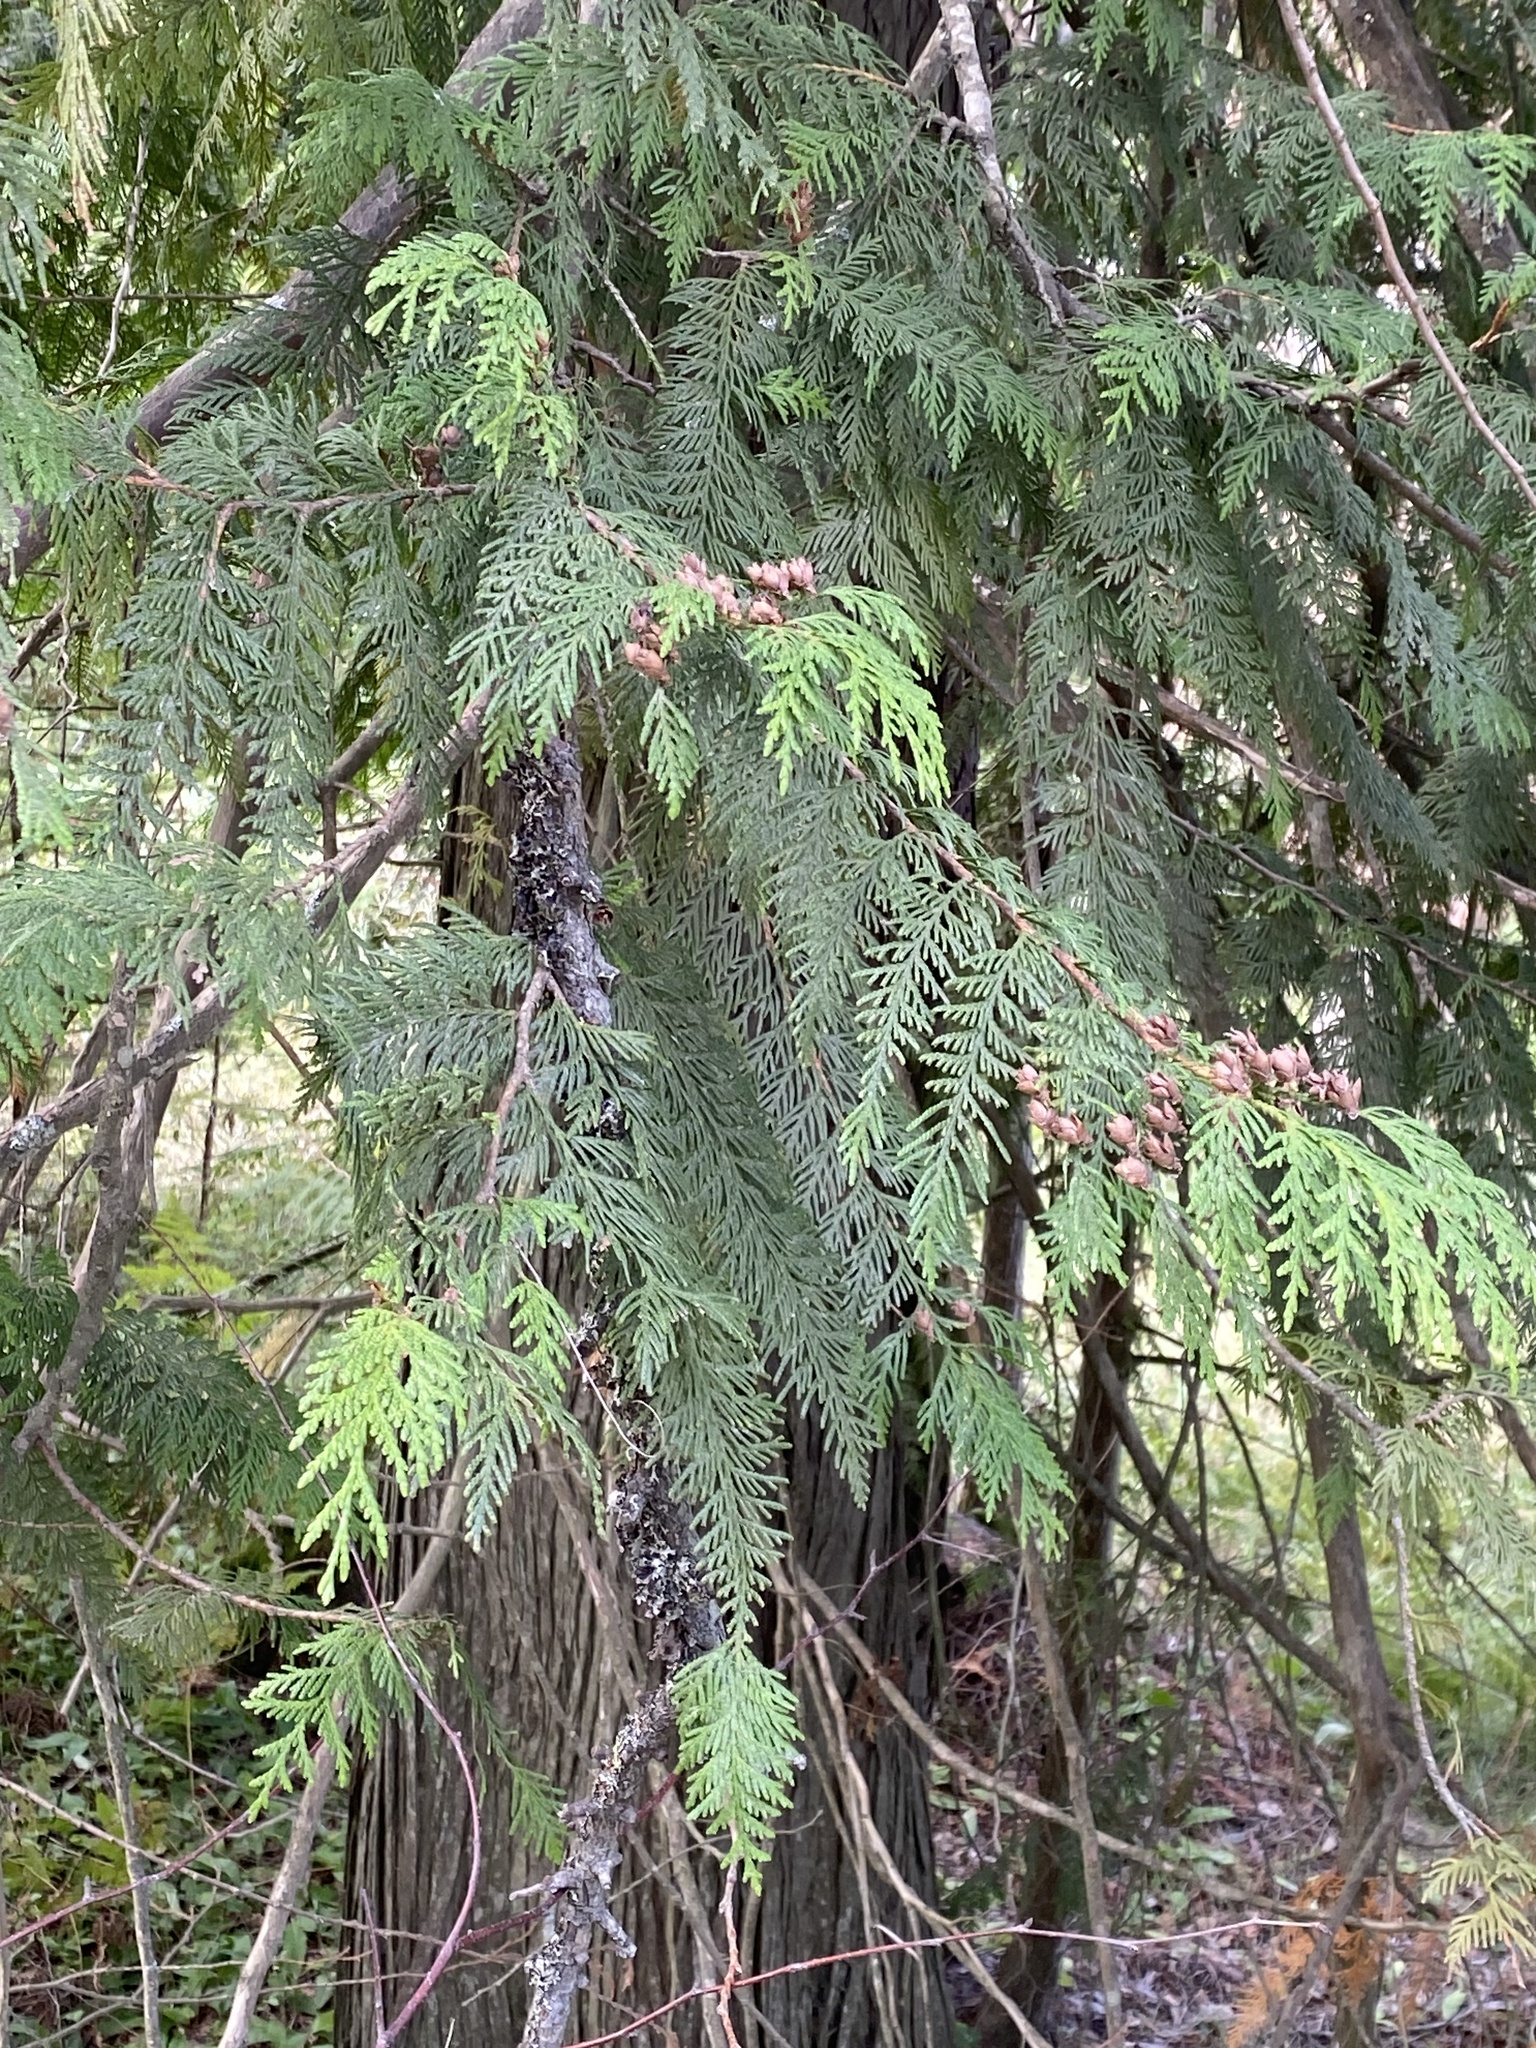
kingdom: Plantae
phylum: Tracheophyta
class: Pinopsida
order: Pinales
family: Cupressaceae
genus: Thuja
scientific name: Thuja plicata
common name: Western red-cedar
